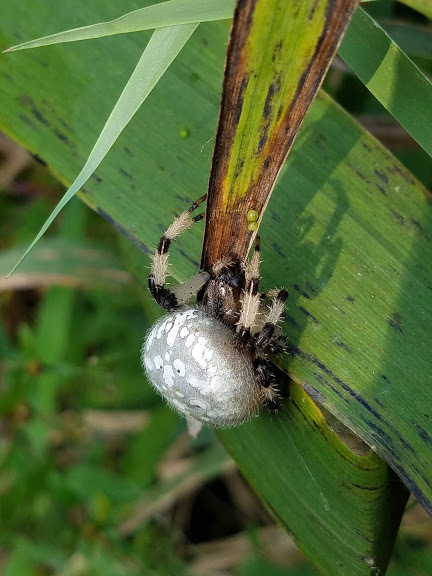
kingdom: Animalia
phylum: Arthropoda
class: Arachnida
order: Araneae
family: Araneidae
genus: Araneus
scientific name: Araneus trifolium
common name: Shamrock orbweaver
